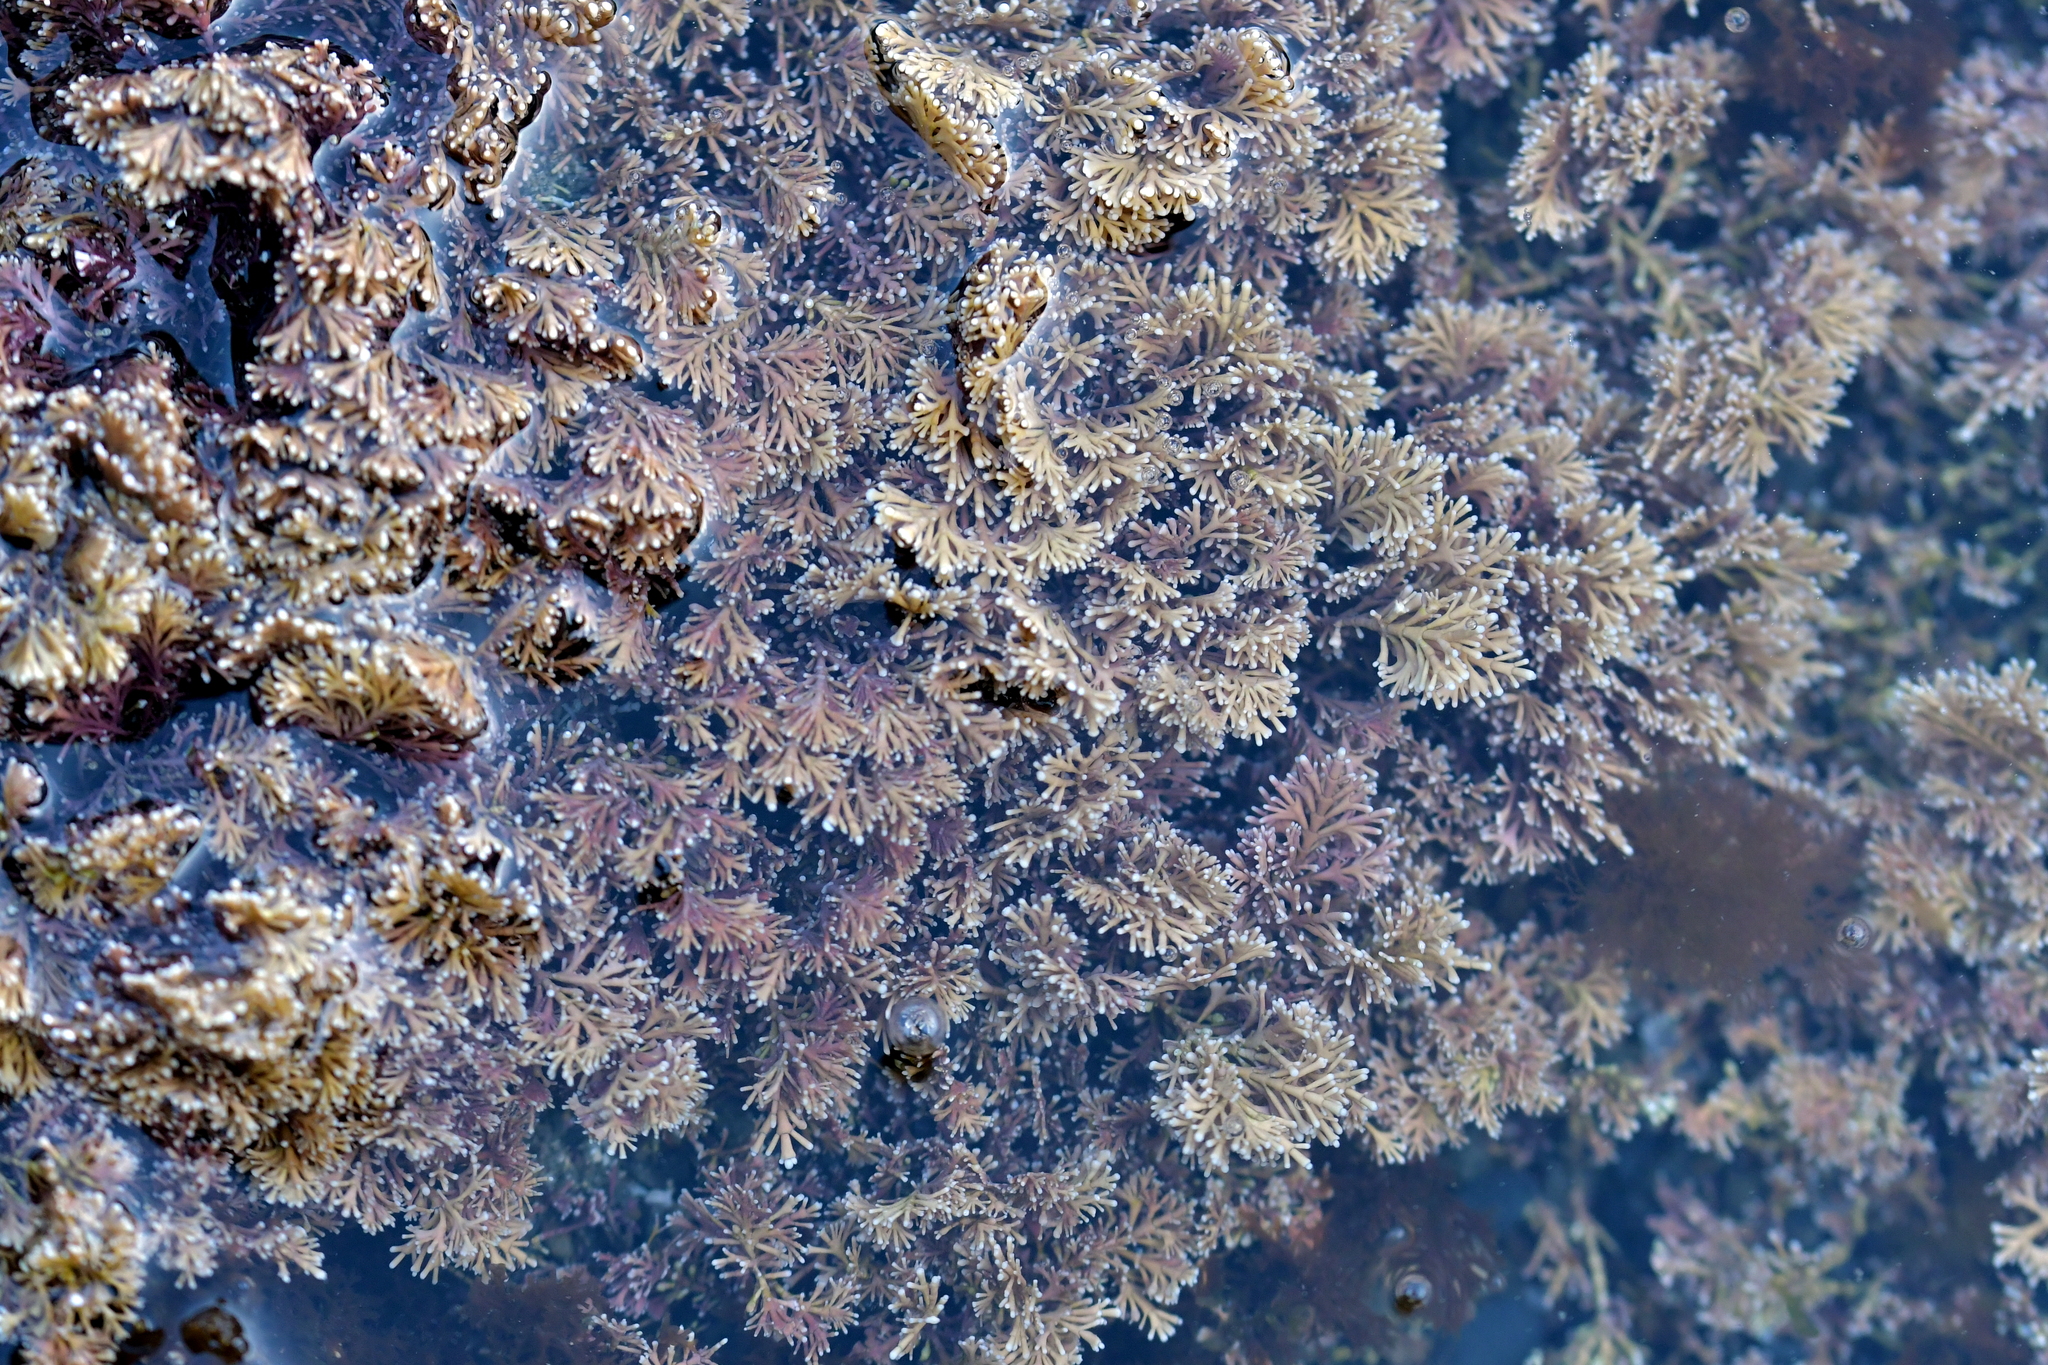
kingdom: Plantae
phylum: Rhodophyta
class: Florideophyceae
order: Corallinales
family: Corallinaceae
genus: Corallina
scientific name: Corallina officinalis
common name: Coral weed
